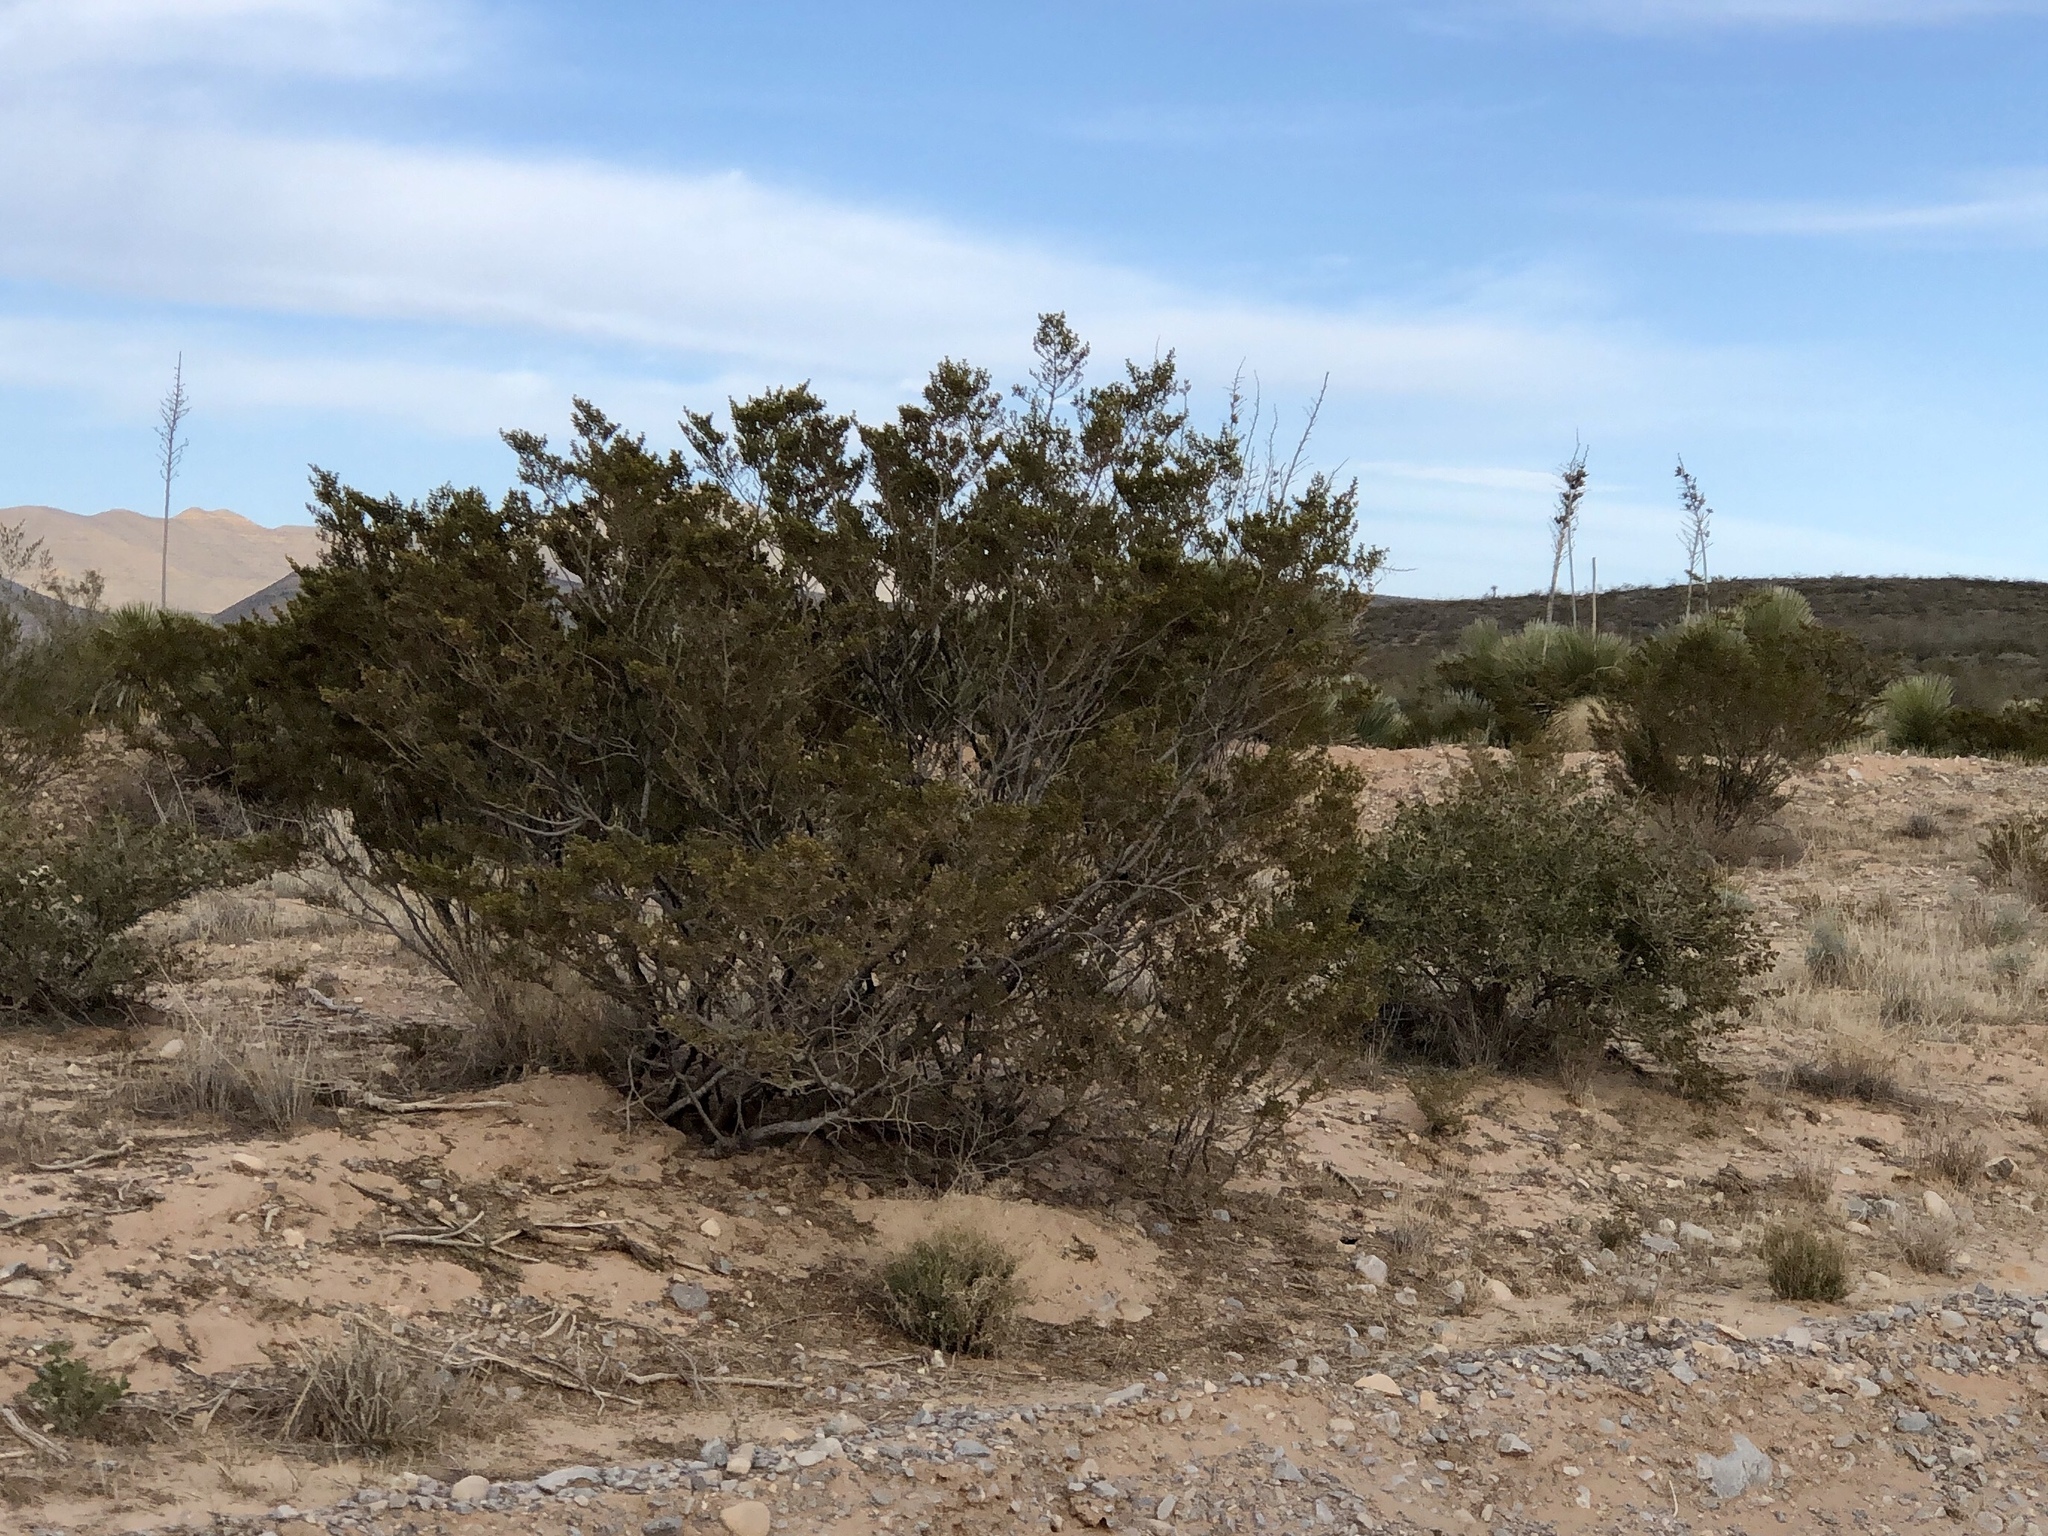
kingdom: Plantae
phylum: Tracheophyta
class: Magnoliopsida
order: Zygophyllales
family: Zygophyllaceae
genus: Larrea
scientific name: Larrea tridentata
